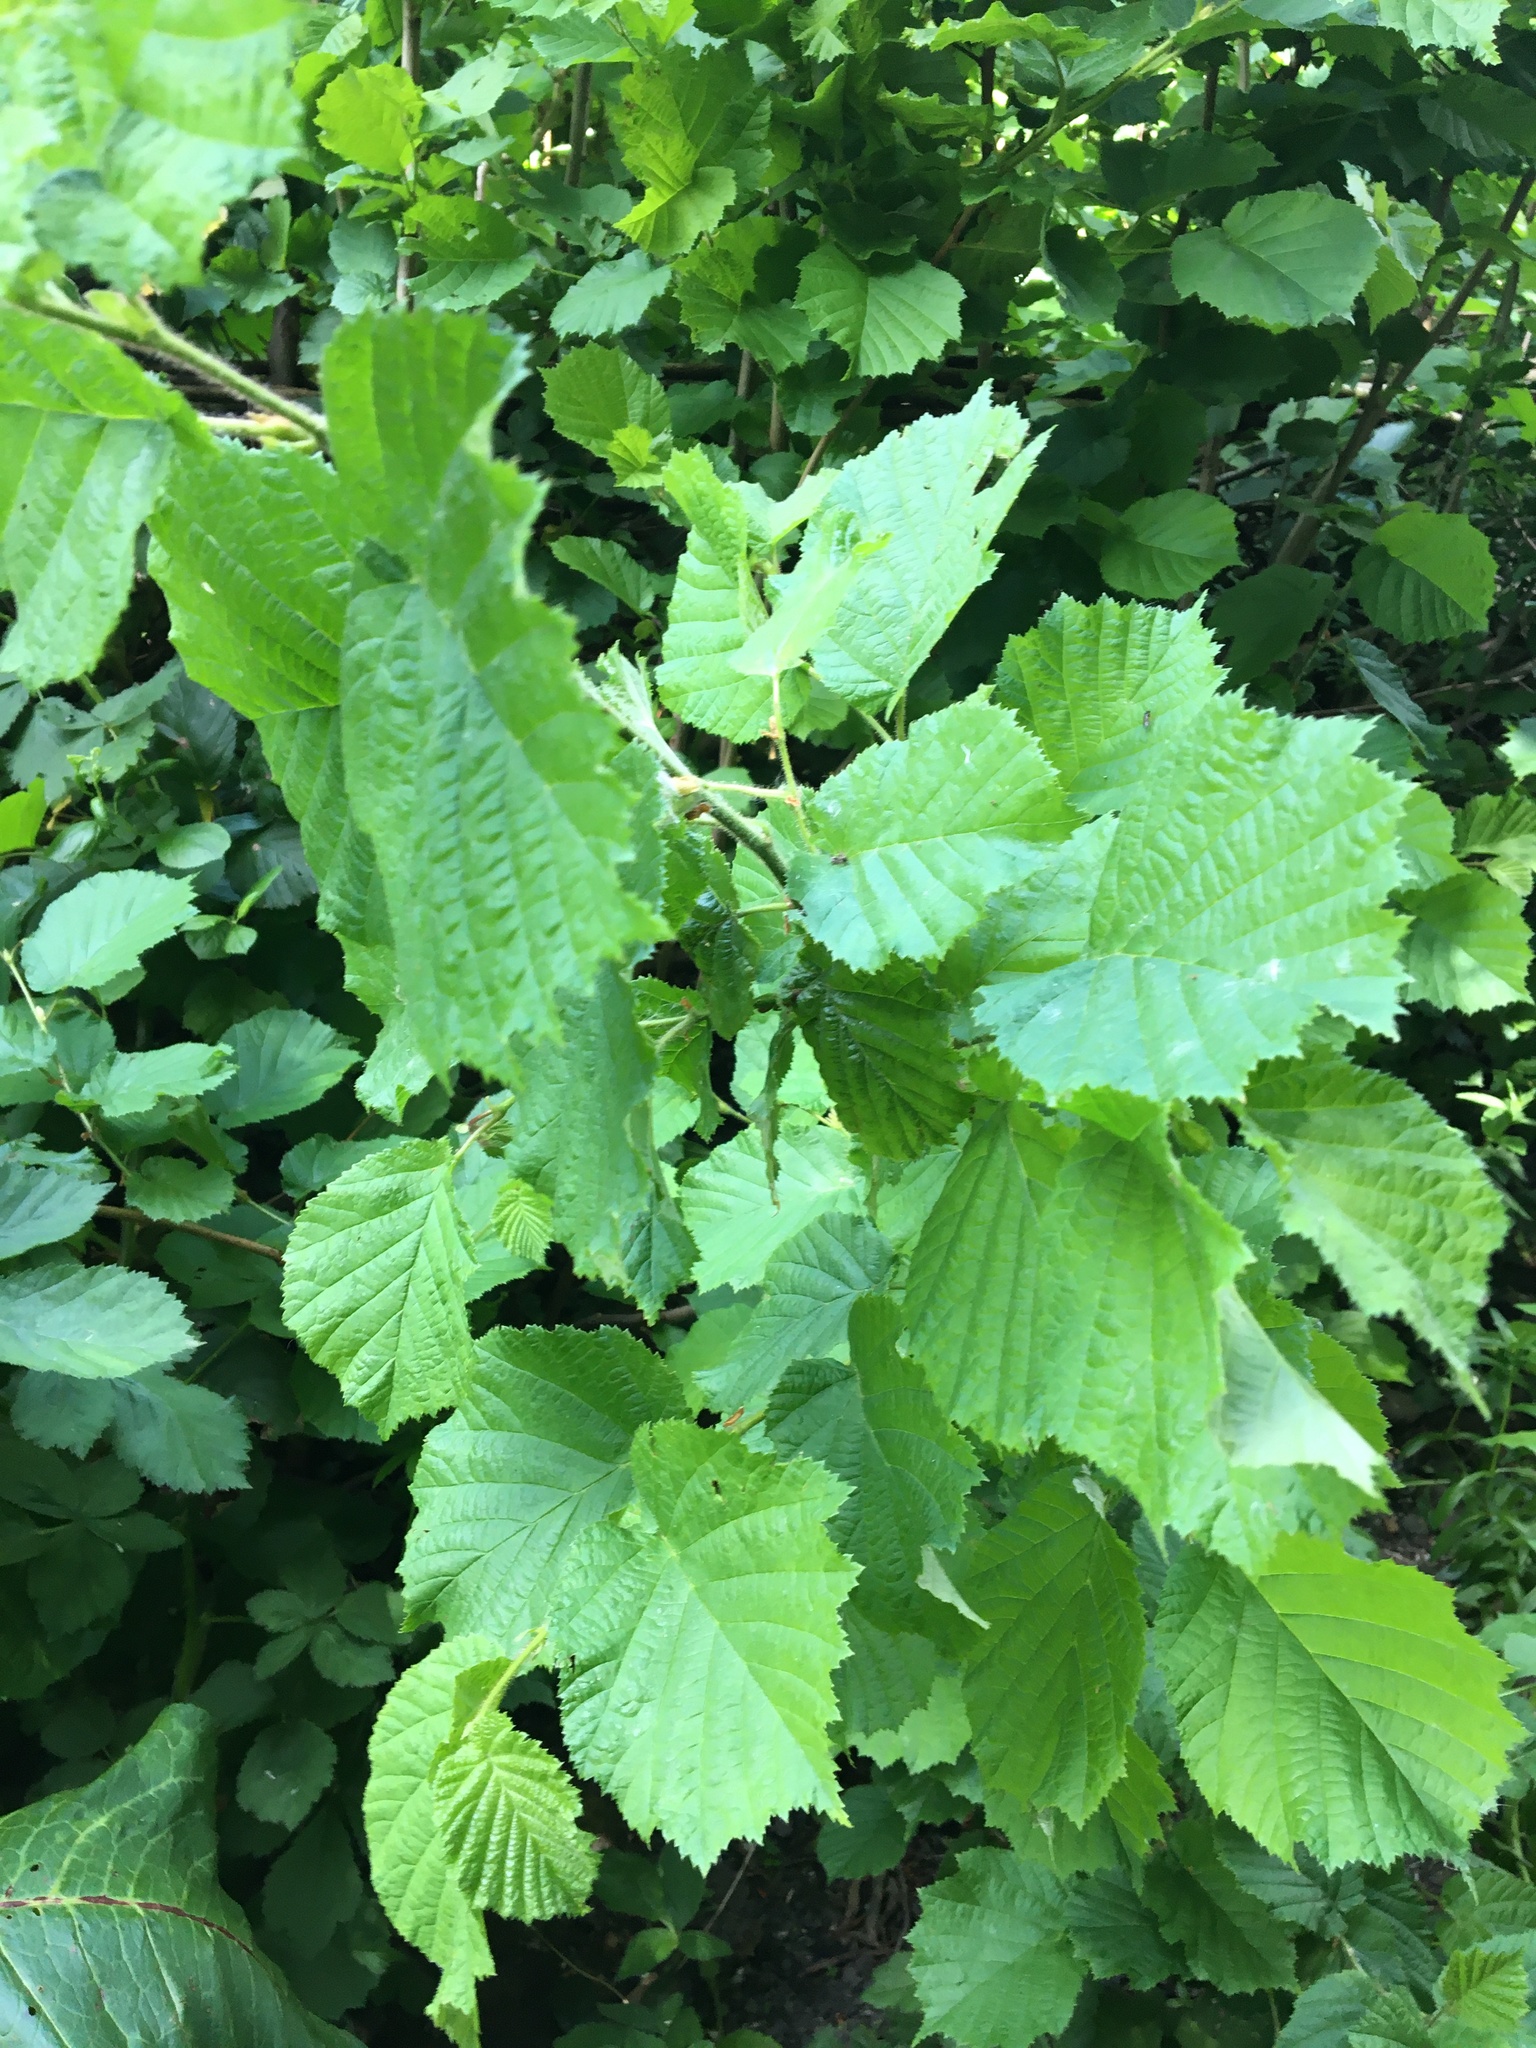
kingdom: Plantae
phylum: Tracheophyta
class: Magnoliopsida
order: Fagales
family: Betulaceae
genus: Corylus
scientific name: Corylus avellana
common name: European hazel
